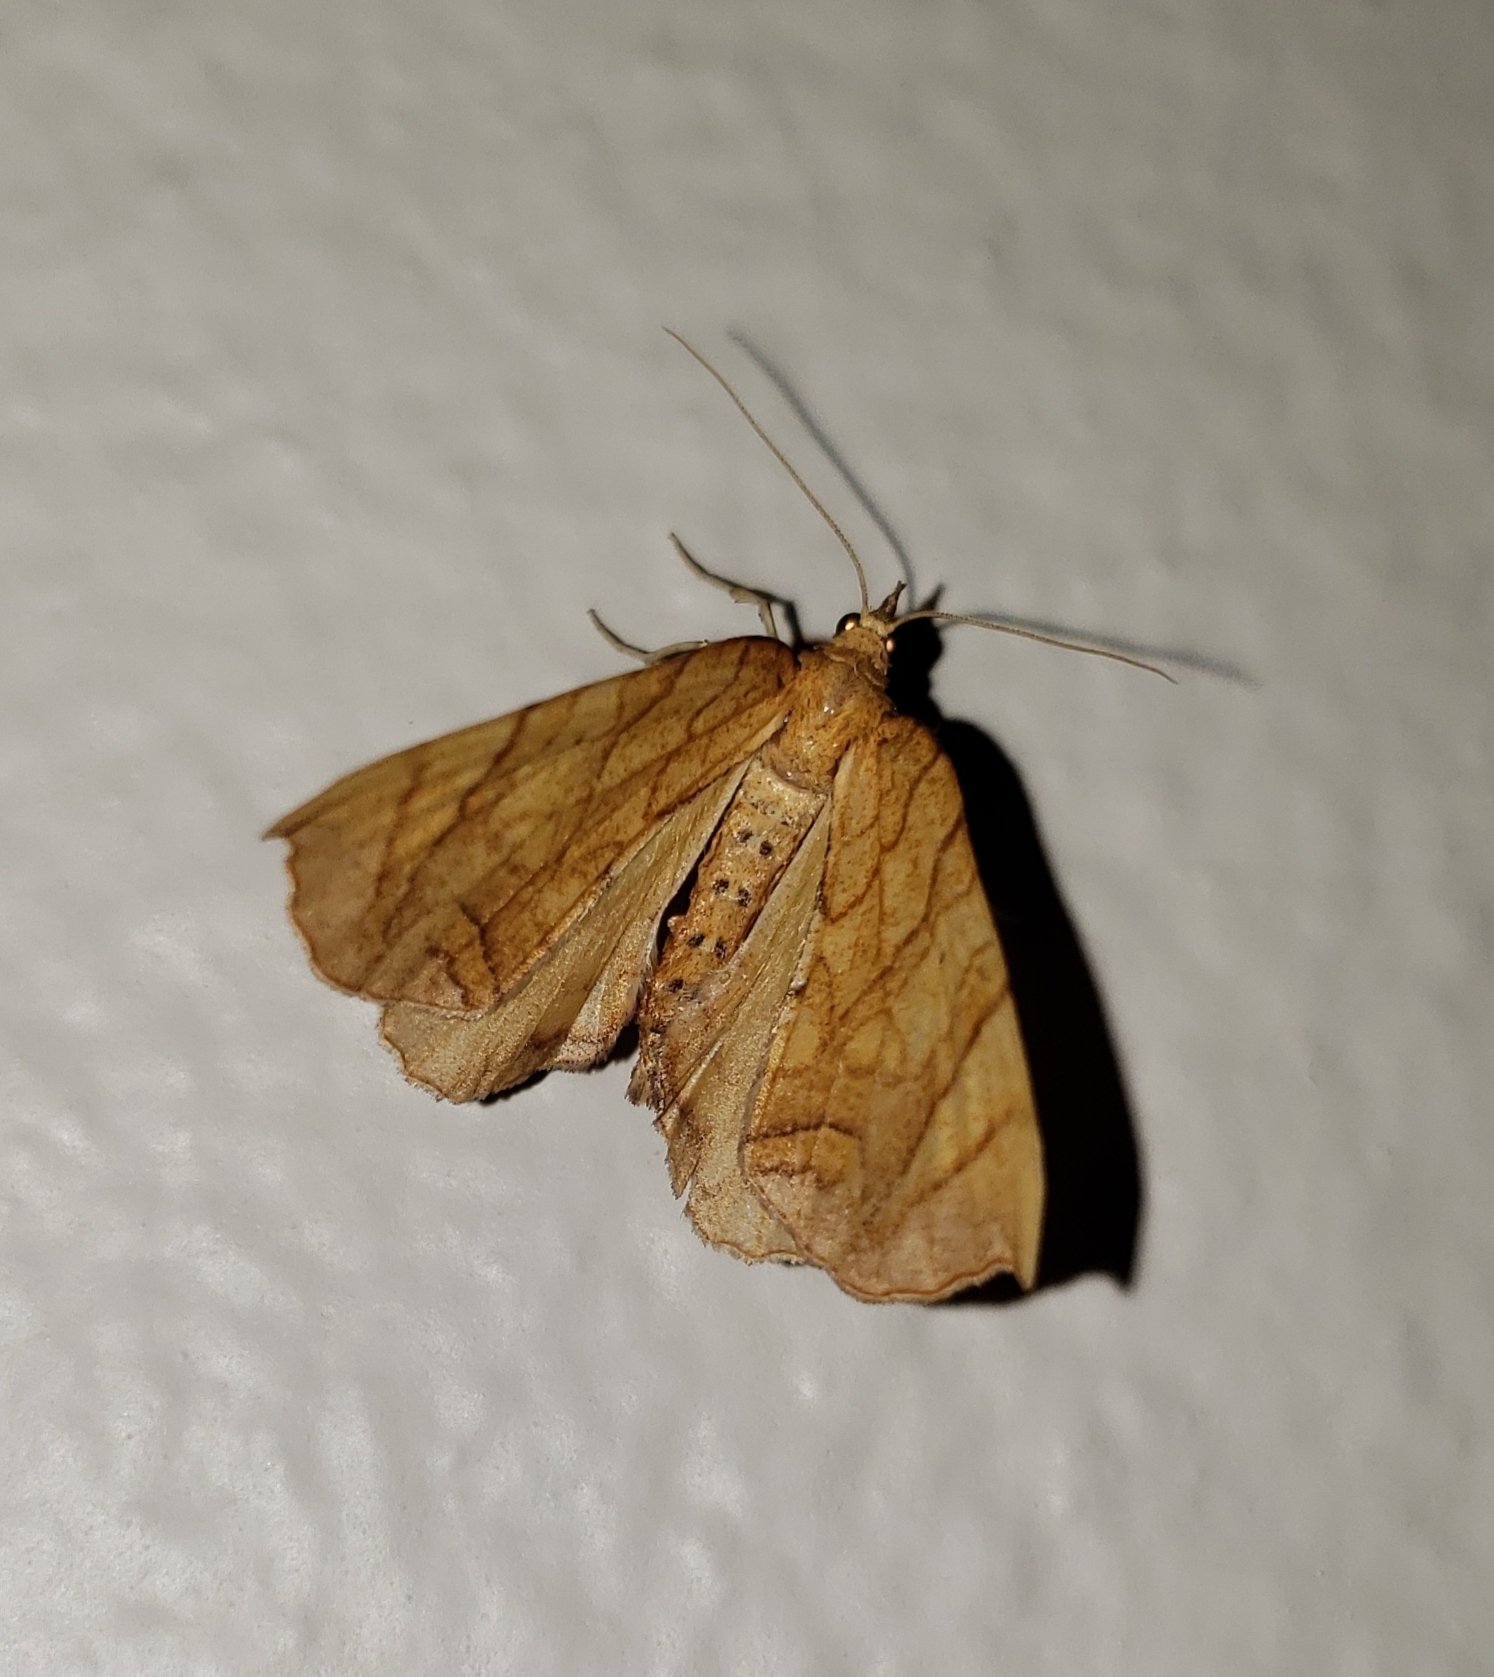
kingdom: Animalia
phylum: Arthropoda
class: Insecta
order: Lepidoptera
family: Geometridae
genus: Eulithis
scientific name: Eulithis
